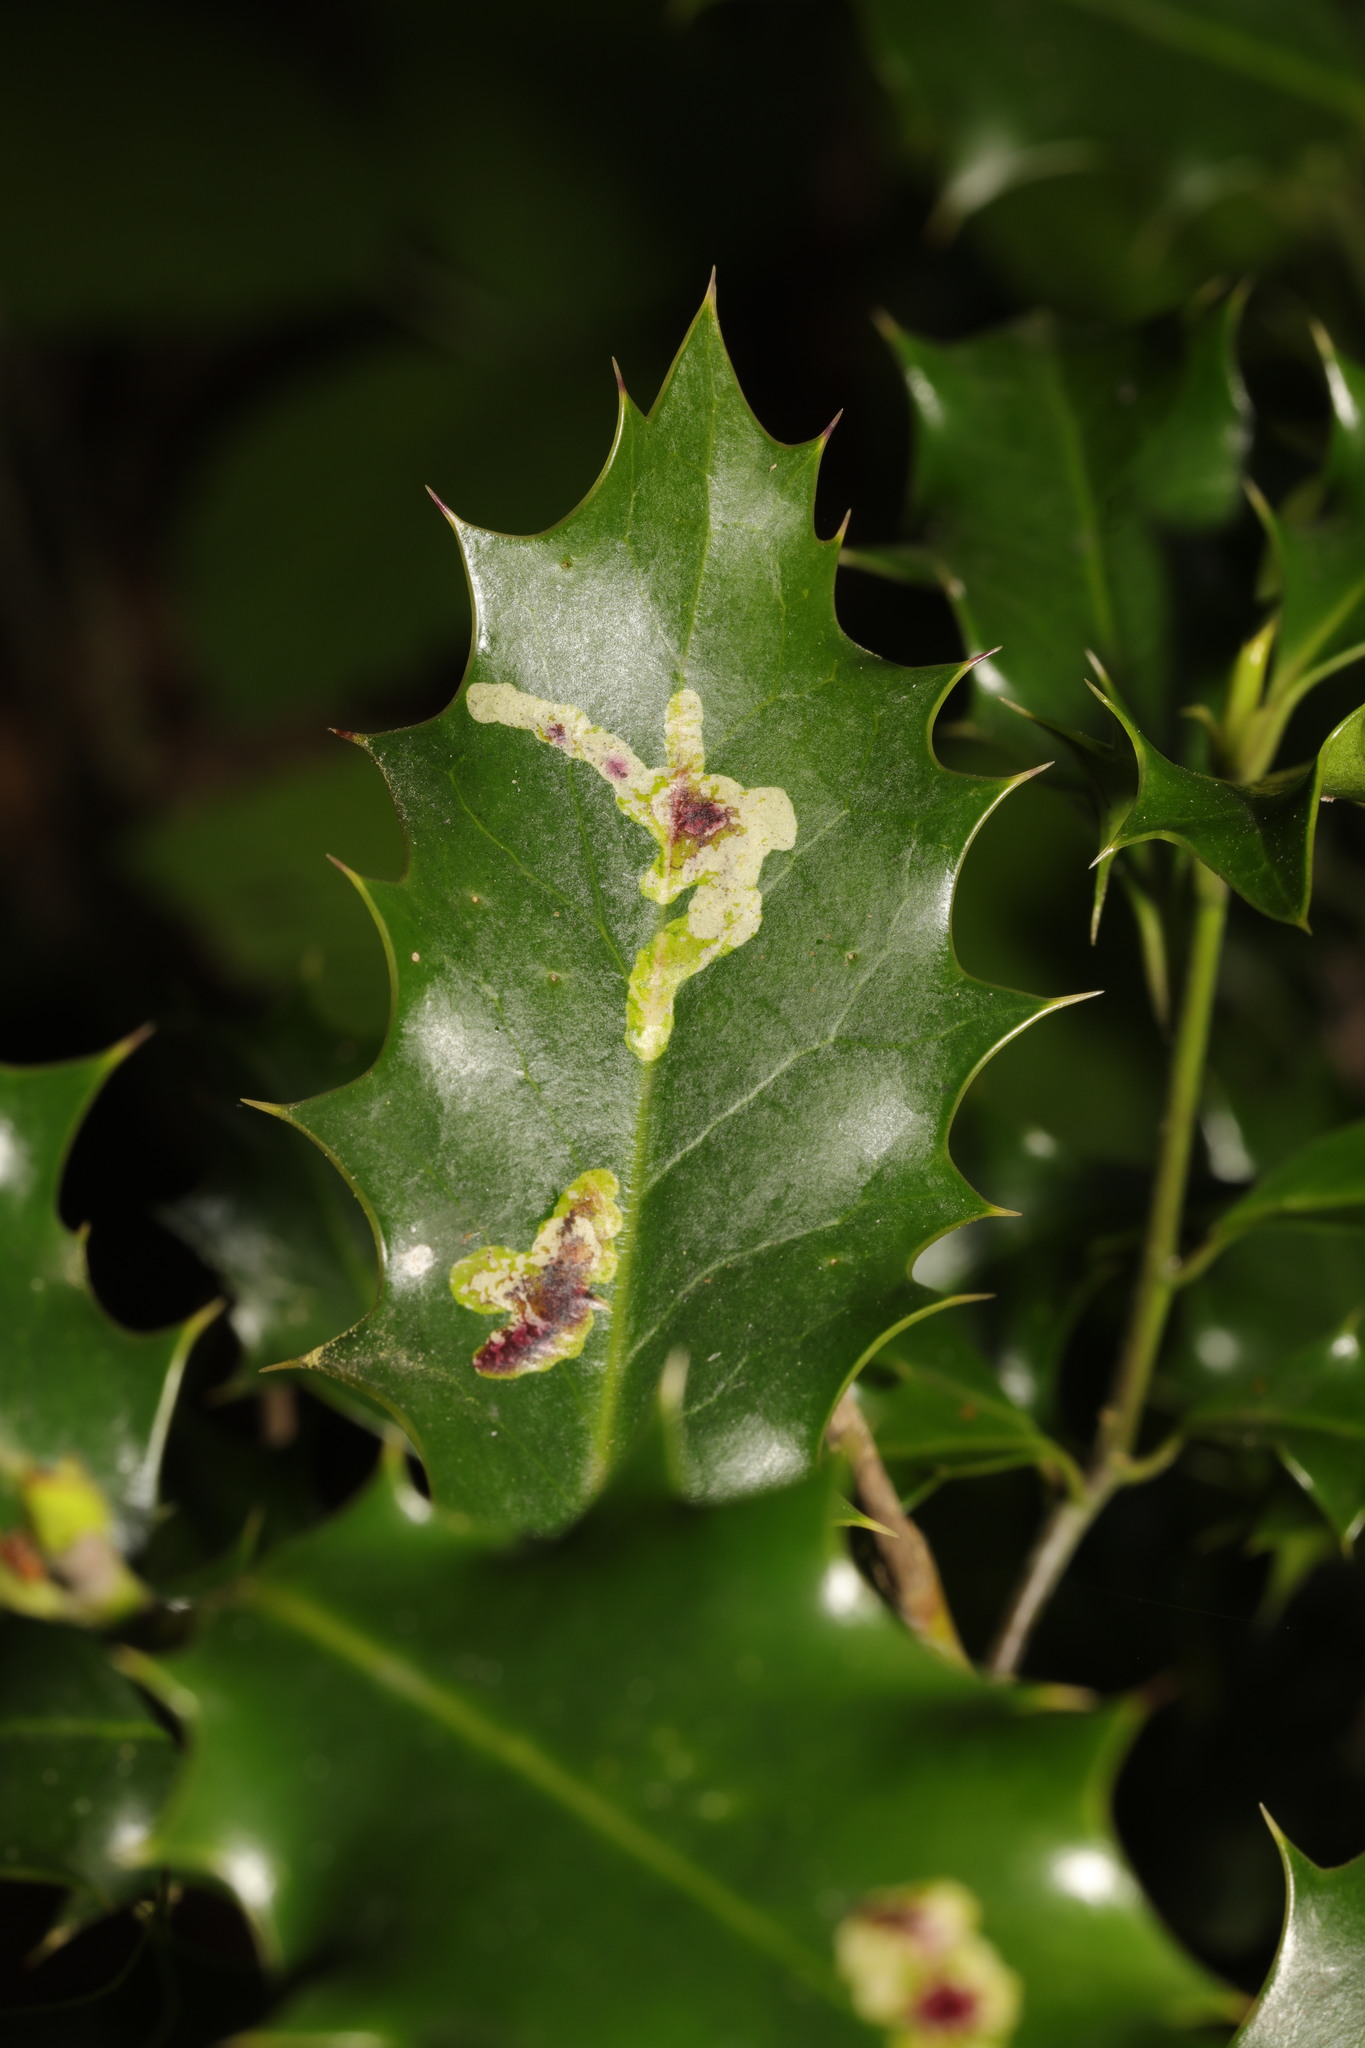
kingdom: Animalia
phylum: Arthropoda
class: Insecta
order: Diptera
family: Agromyzidae
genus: Phytomyza
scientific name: Phytomyza ilicis
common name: Holly leafminer
